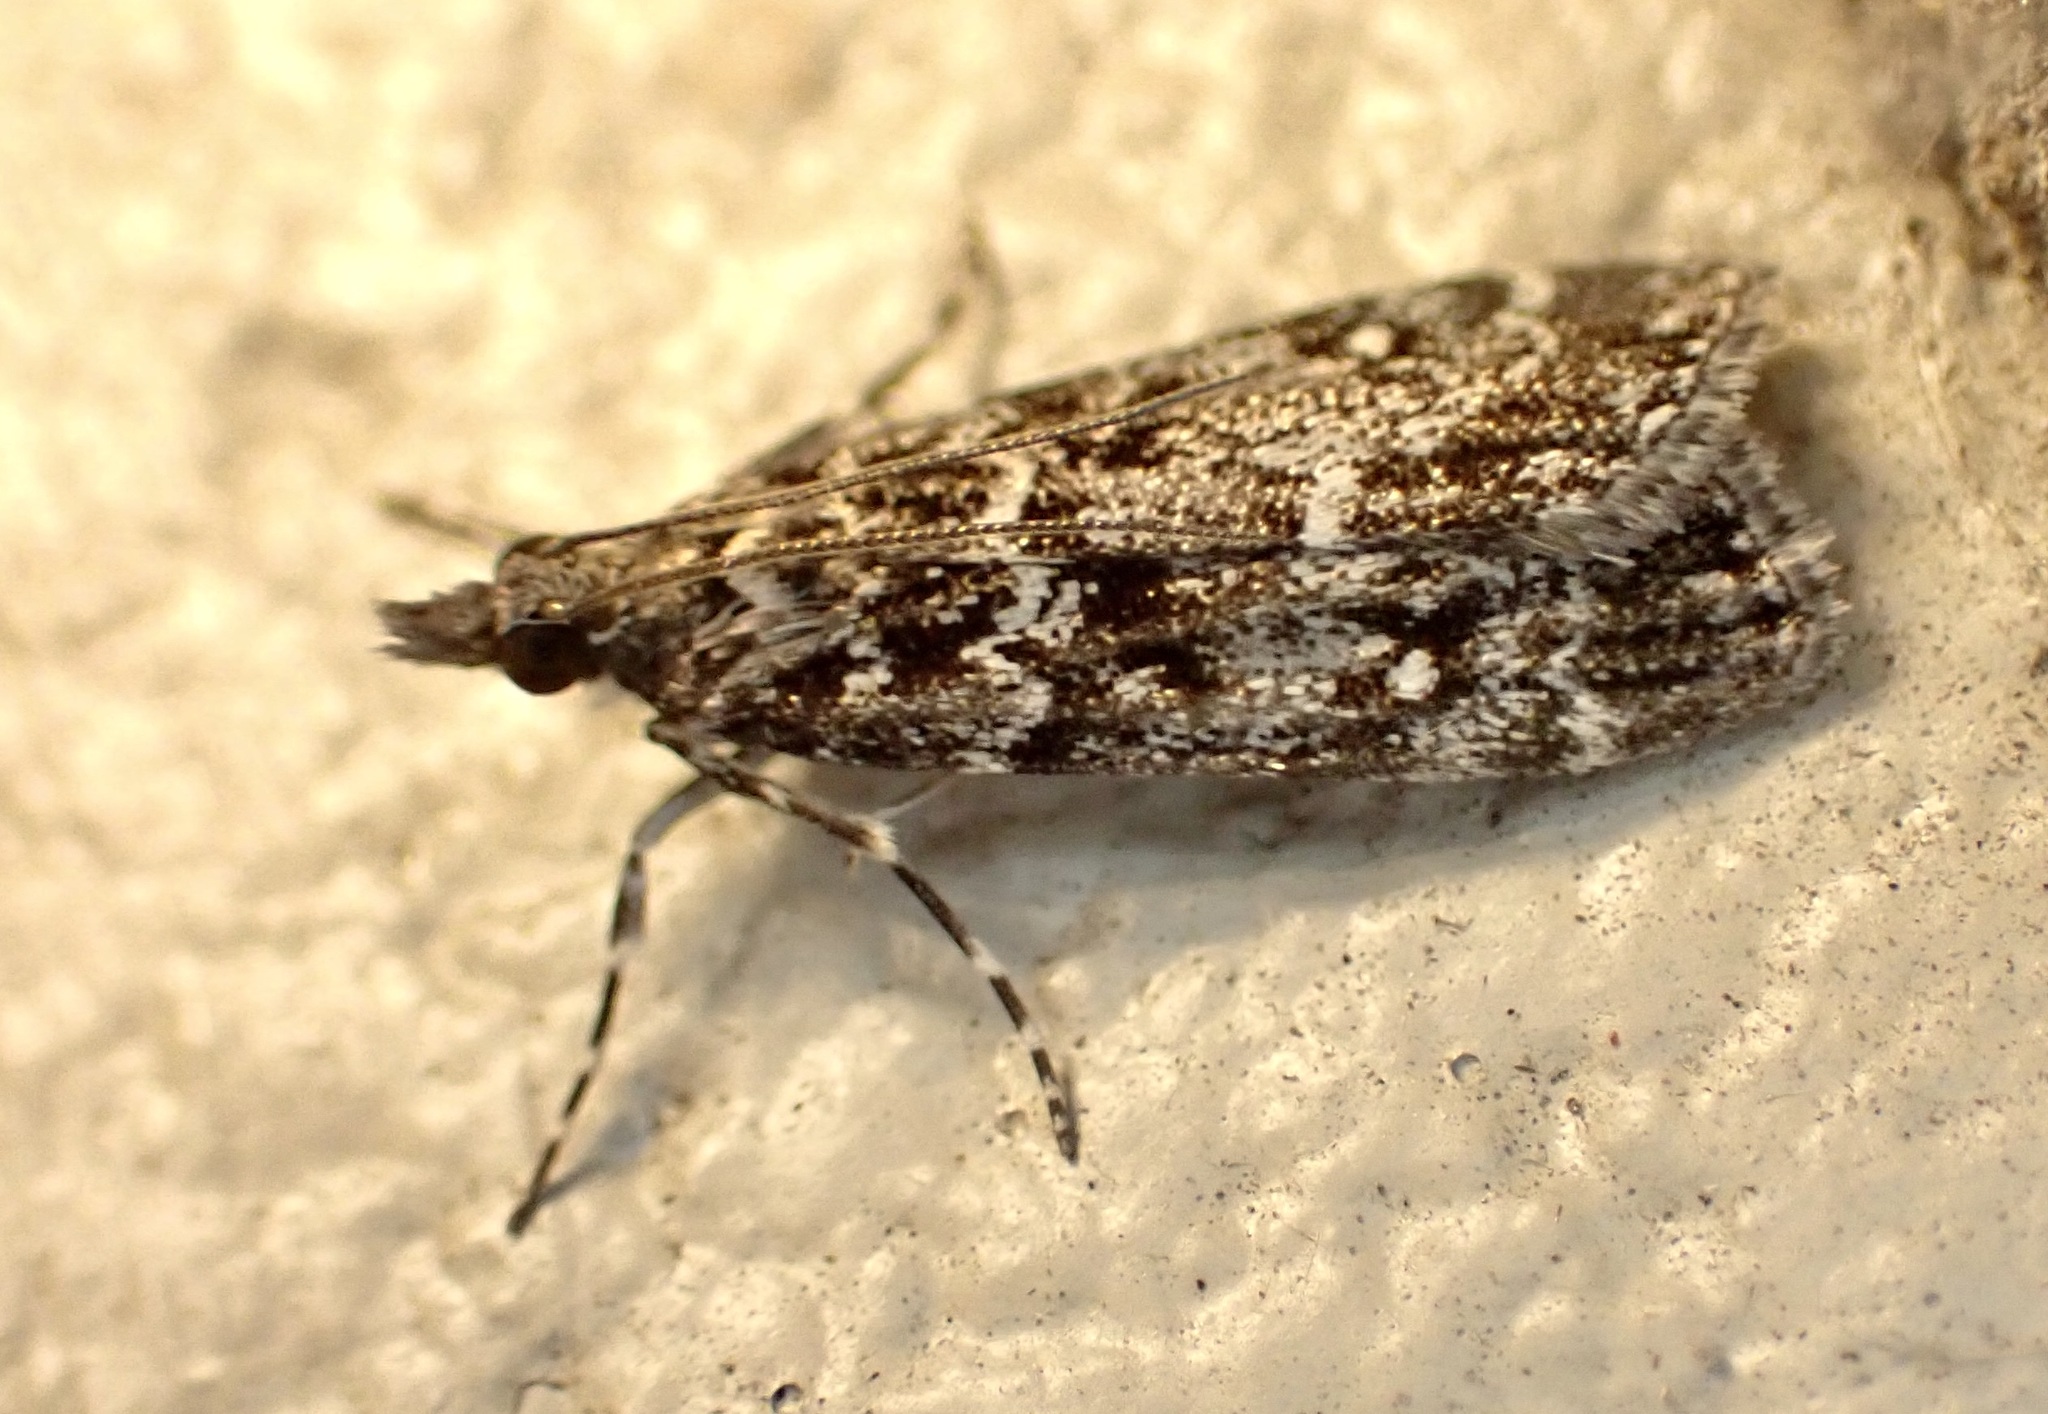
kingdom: Animalia
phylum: Arthropoda
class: Insecta
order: Lepidoptera
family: Crambidae
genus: Eudonia
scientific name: Eudonia philerga
